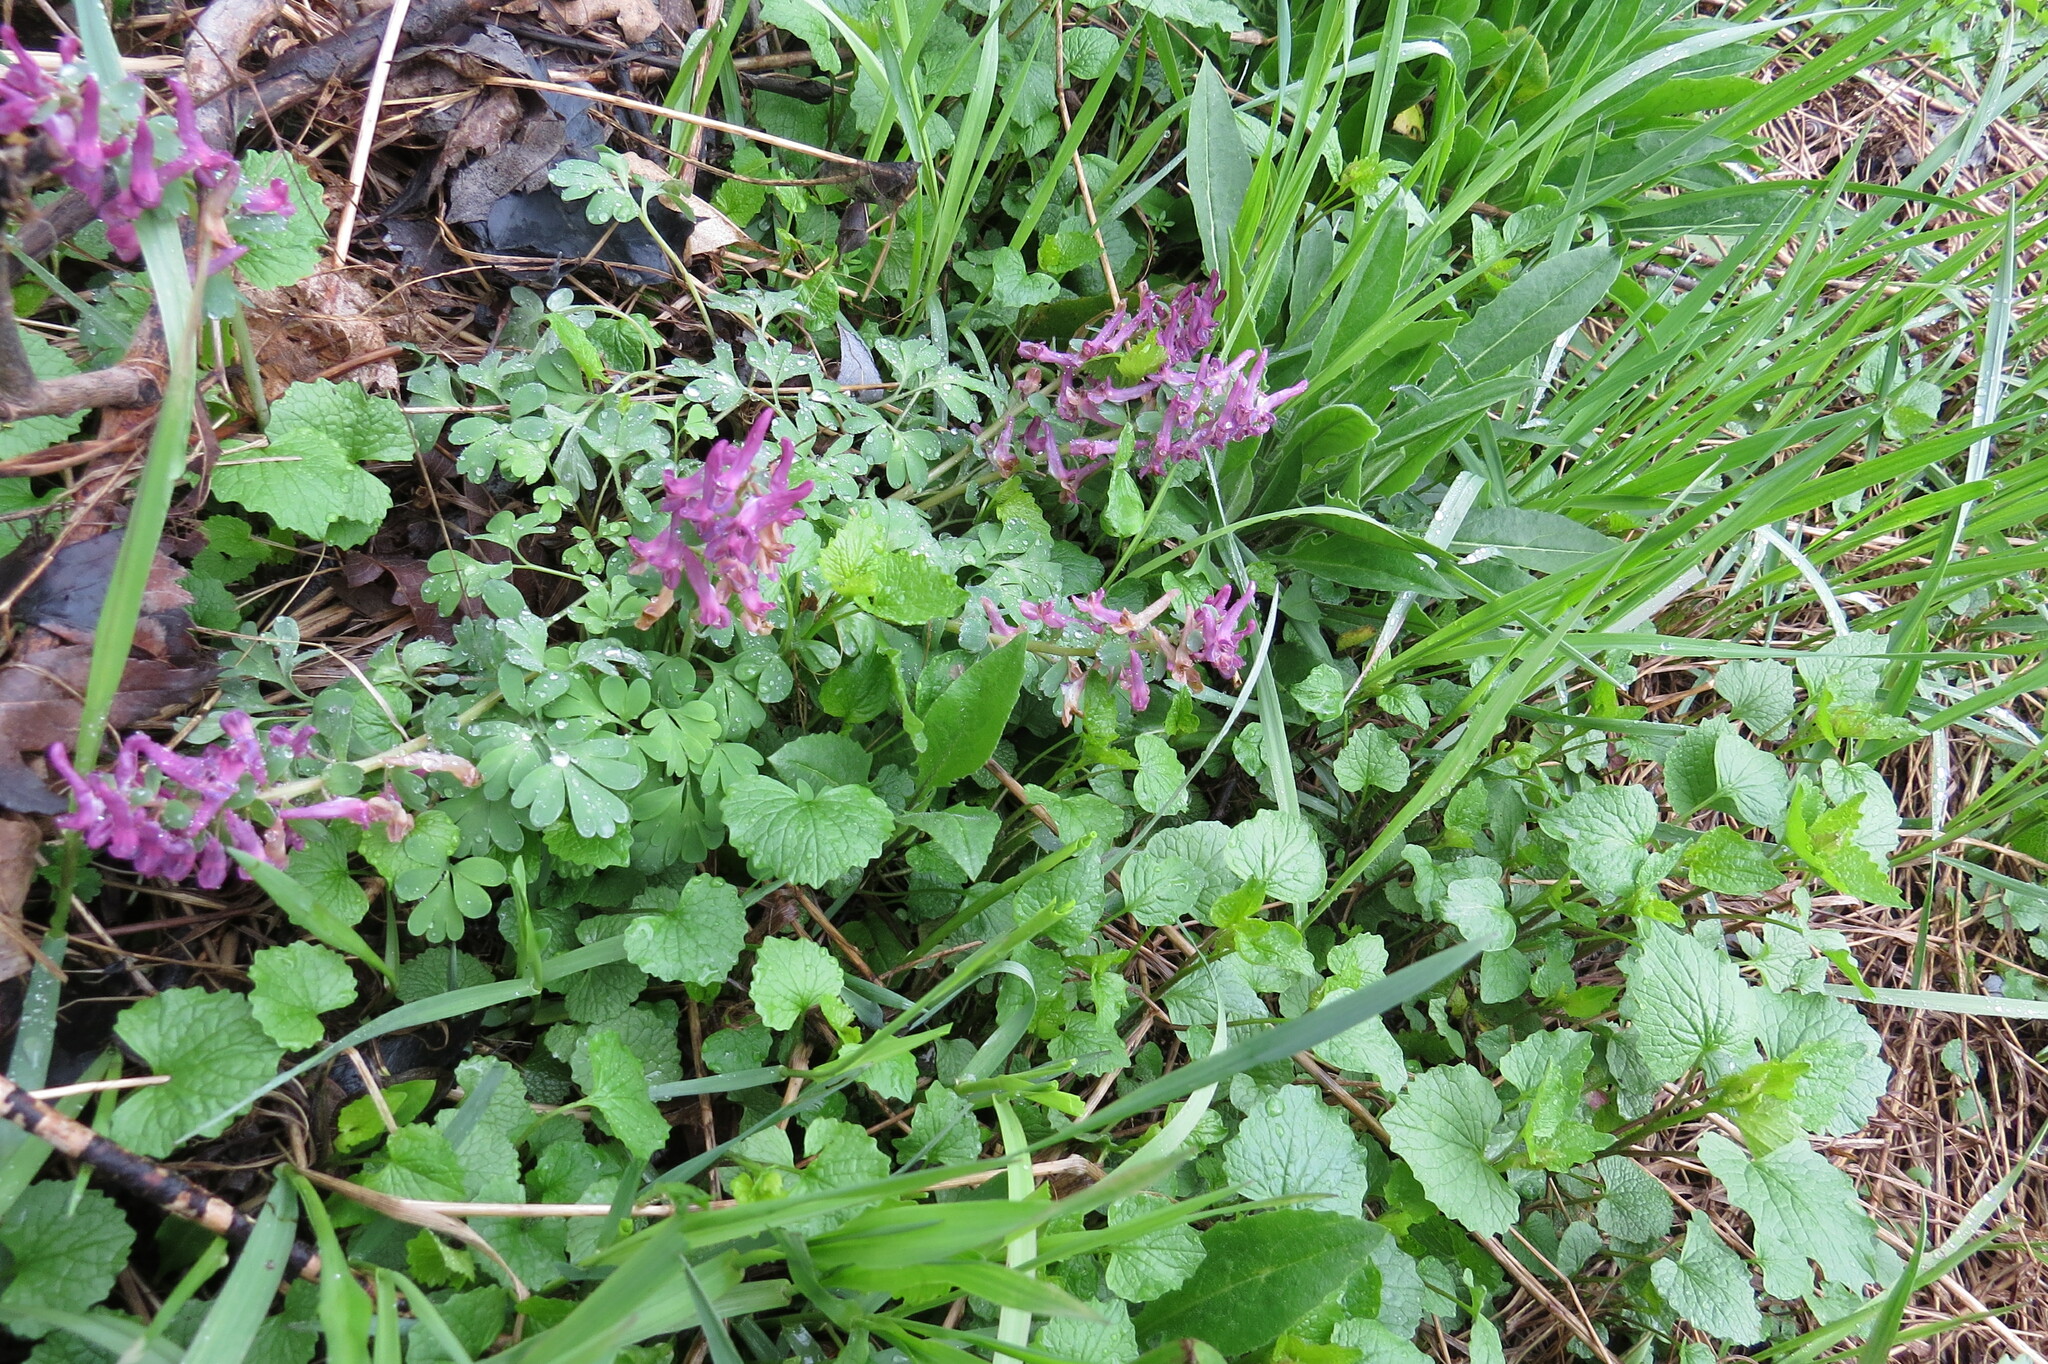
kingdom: Plantae
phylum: Tracheophyta
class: Magnoliopsida
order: Ranunculales
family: Papaveraceae
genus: Corydalis
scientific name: Corydalis solida
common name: Bird-in-a-bush
